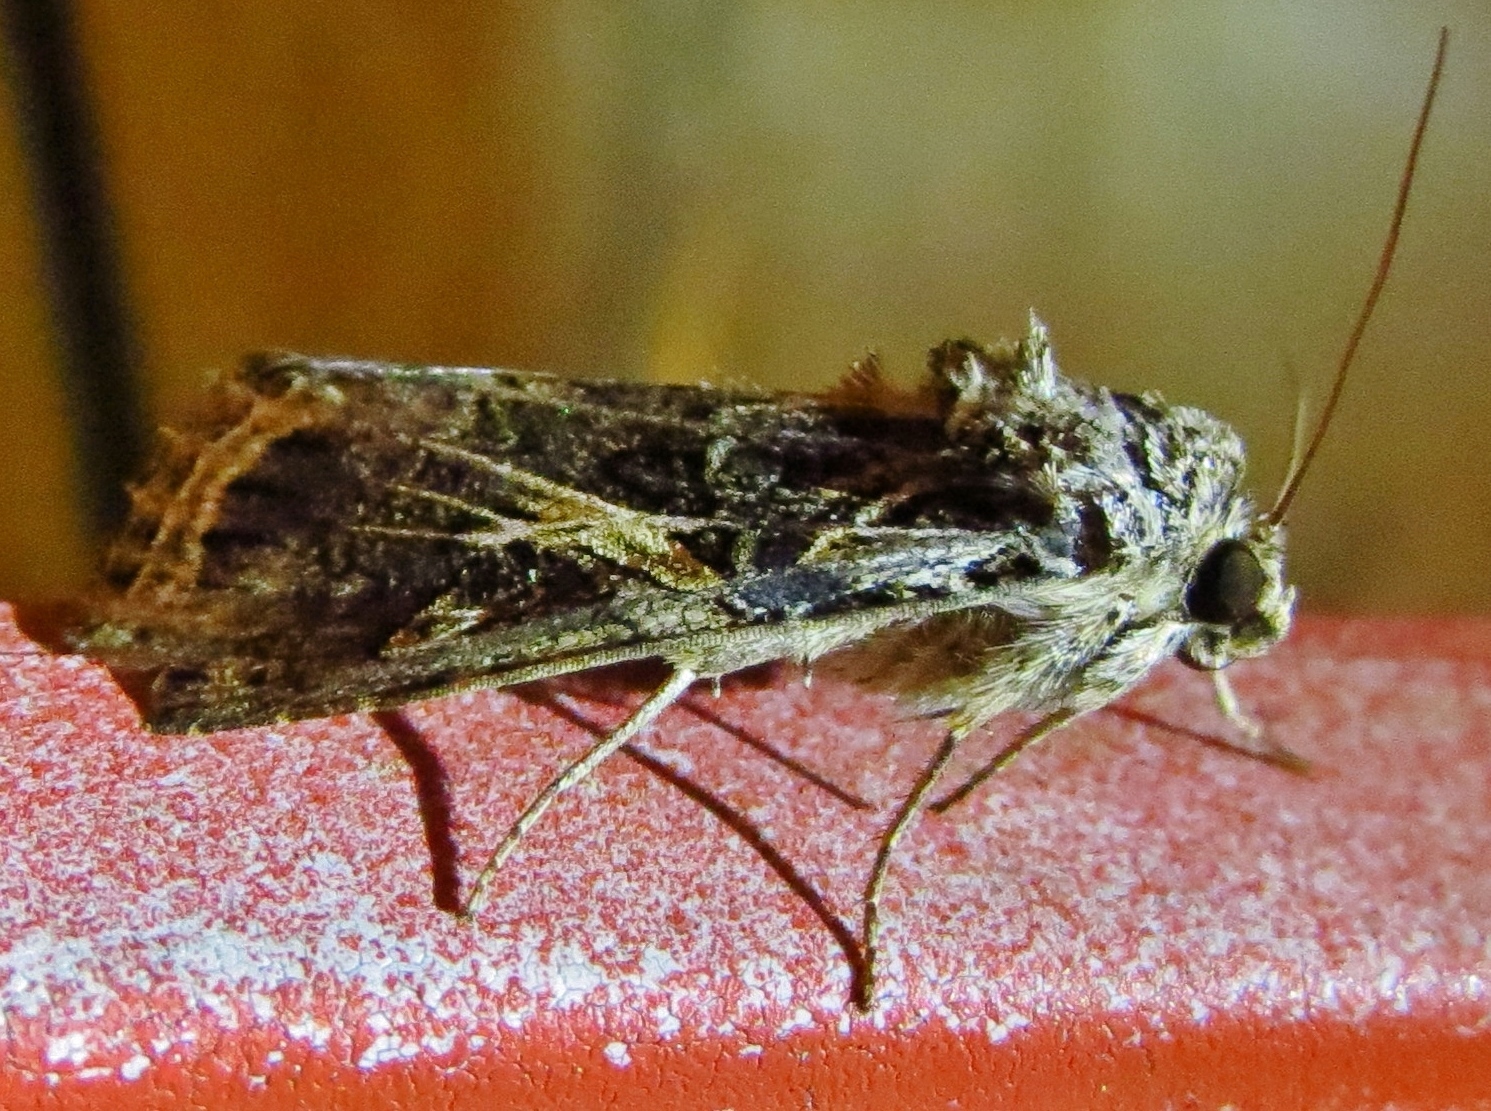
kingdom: Animalia
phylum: Arthropoda
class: Insecta
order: Lepidoptera
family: Noctuidae
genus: Spodoptera
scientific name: Spodoptera ornithogalli
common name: Yellow-striped armyworm
